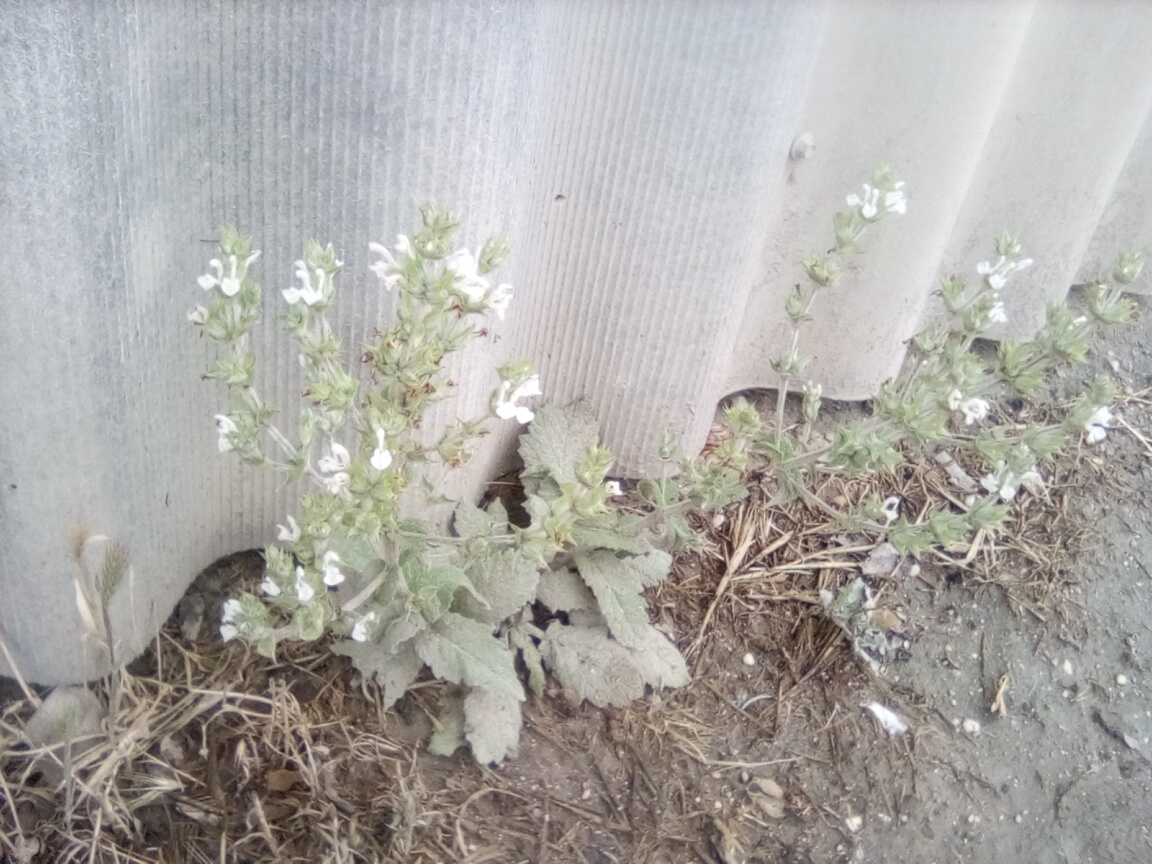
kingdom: Plantae
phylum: Tracheophyta
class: Magnoliopsida
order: Lamiales
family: Lamiaceae
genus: Salvia
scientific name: Salvia aethiopis
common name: Mediterranean sage
